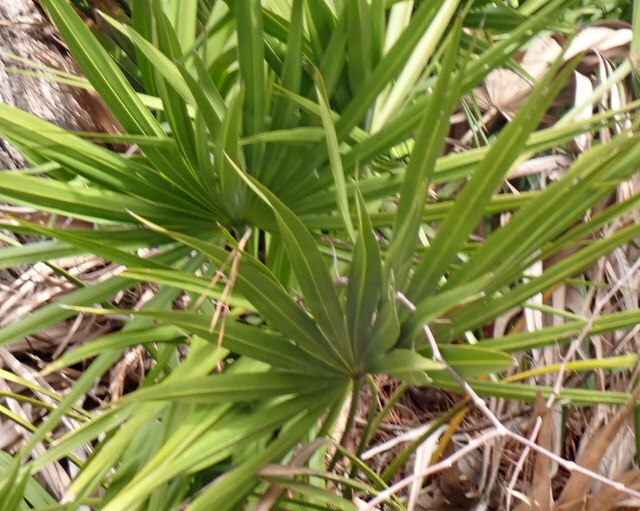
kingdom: Plantae
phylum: Tracheophyta
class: Liliopsida
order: Arecales
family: Arecaceae
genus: Serenoa
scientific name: Serenoa repens
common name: Saw-palmetto
